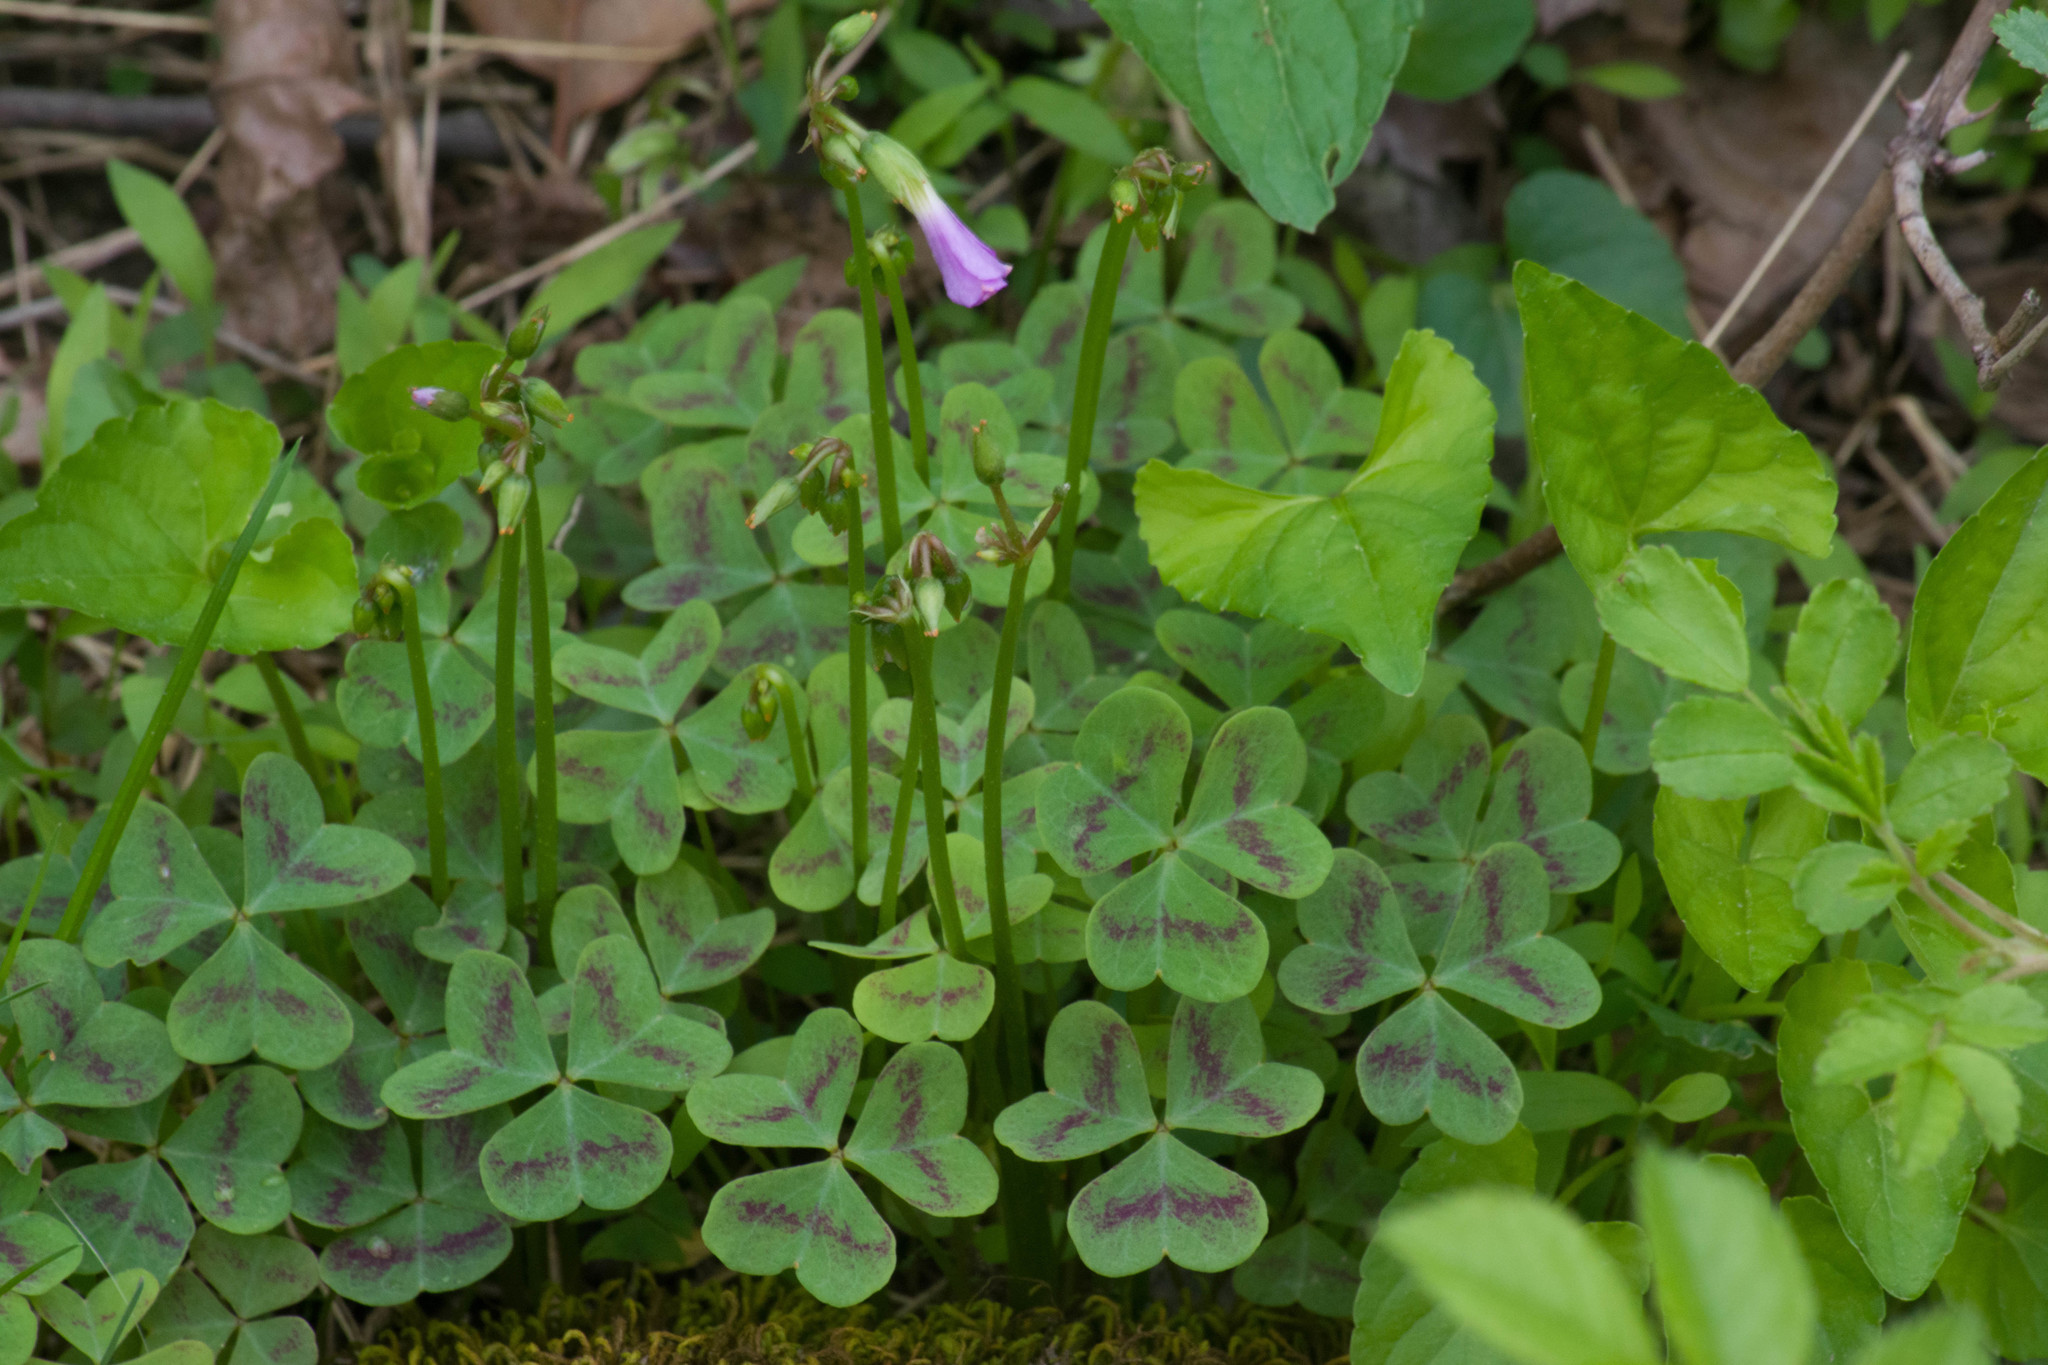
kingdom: Plantae
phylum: Tracheophyta
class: Magnoliopsida
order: Oxalidales
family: Oxalidaceae
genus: Oxalis
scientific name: Oxalis violacea
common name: Violet wood-sorrel
